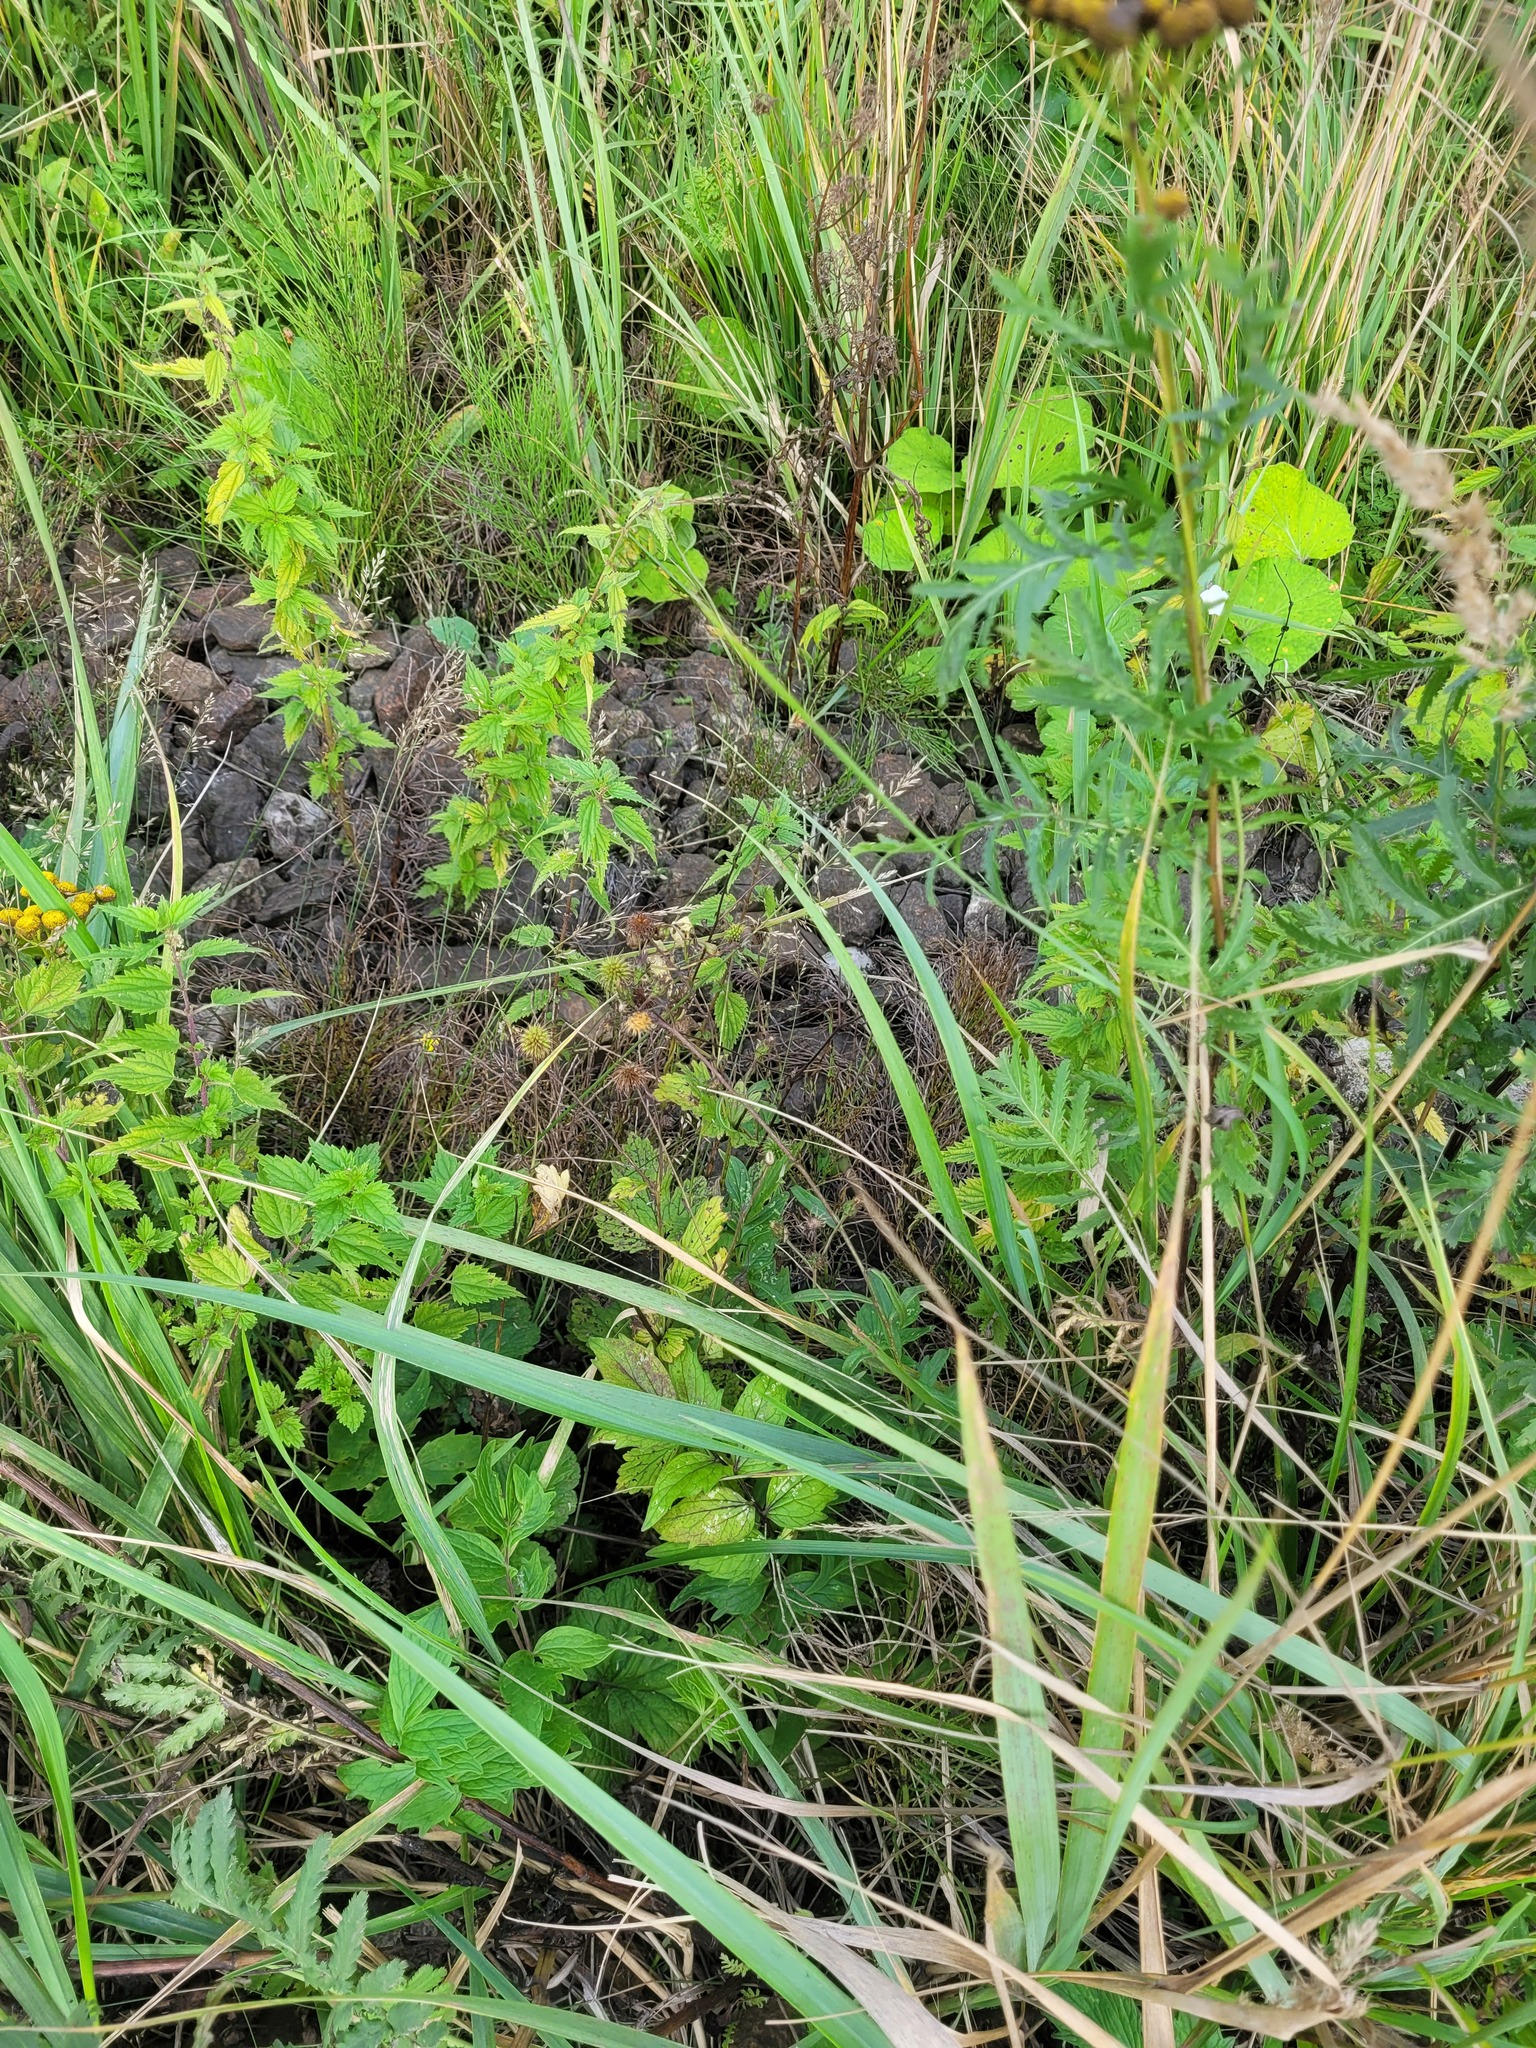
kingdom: Plantae
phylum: Tracheophyta
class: Magnoliopsida
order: Rosales
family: Rosaceae
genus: Geum
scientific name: Geum urbanum
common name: Wood avens
